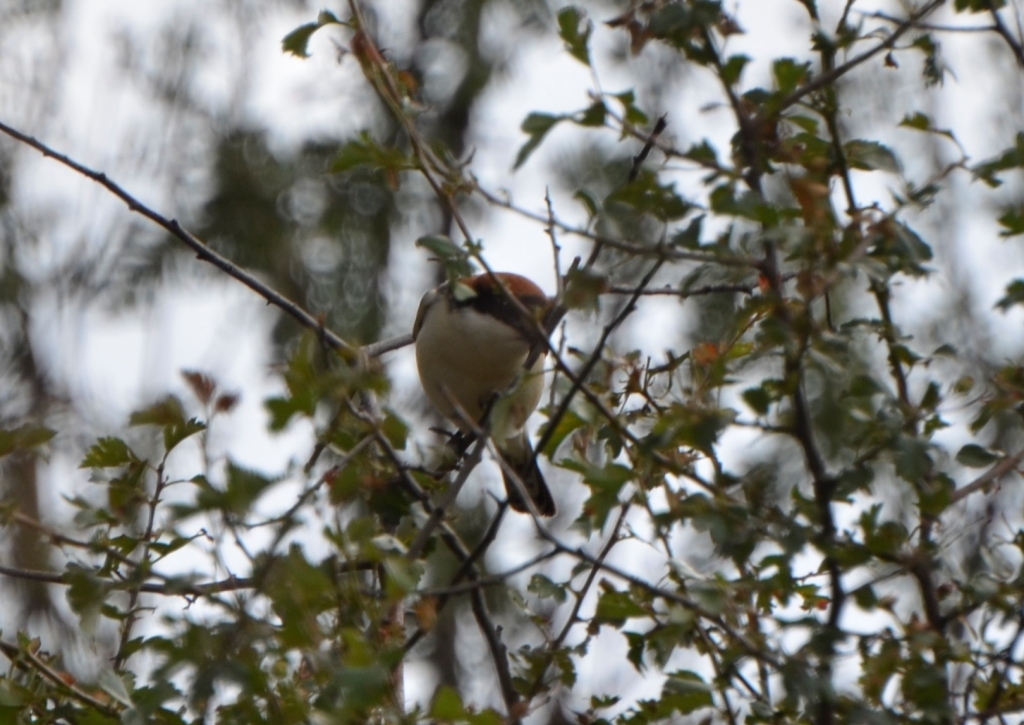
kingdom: Animalia
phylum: Chordata
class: Aves
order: Passeriformes
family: Laniidae
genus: Lanius
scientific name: Lanius senator
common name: Woodchat shrike
